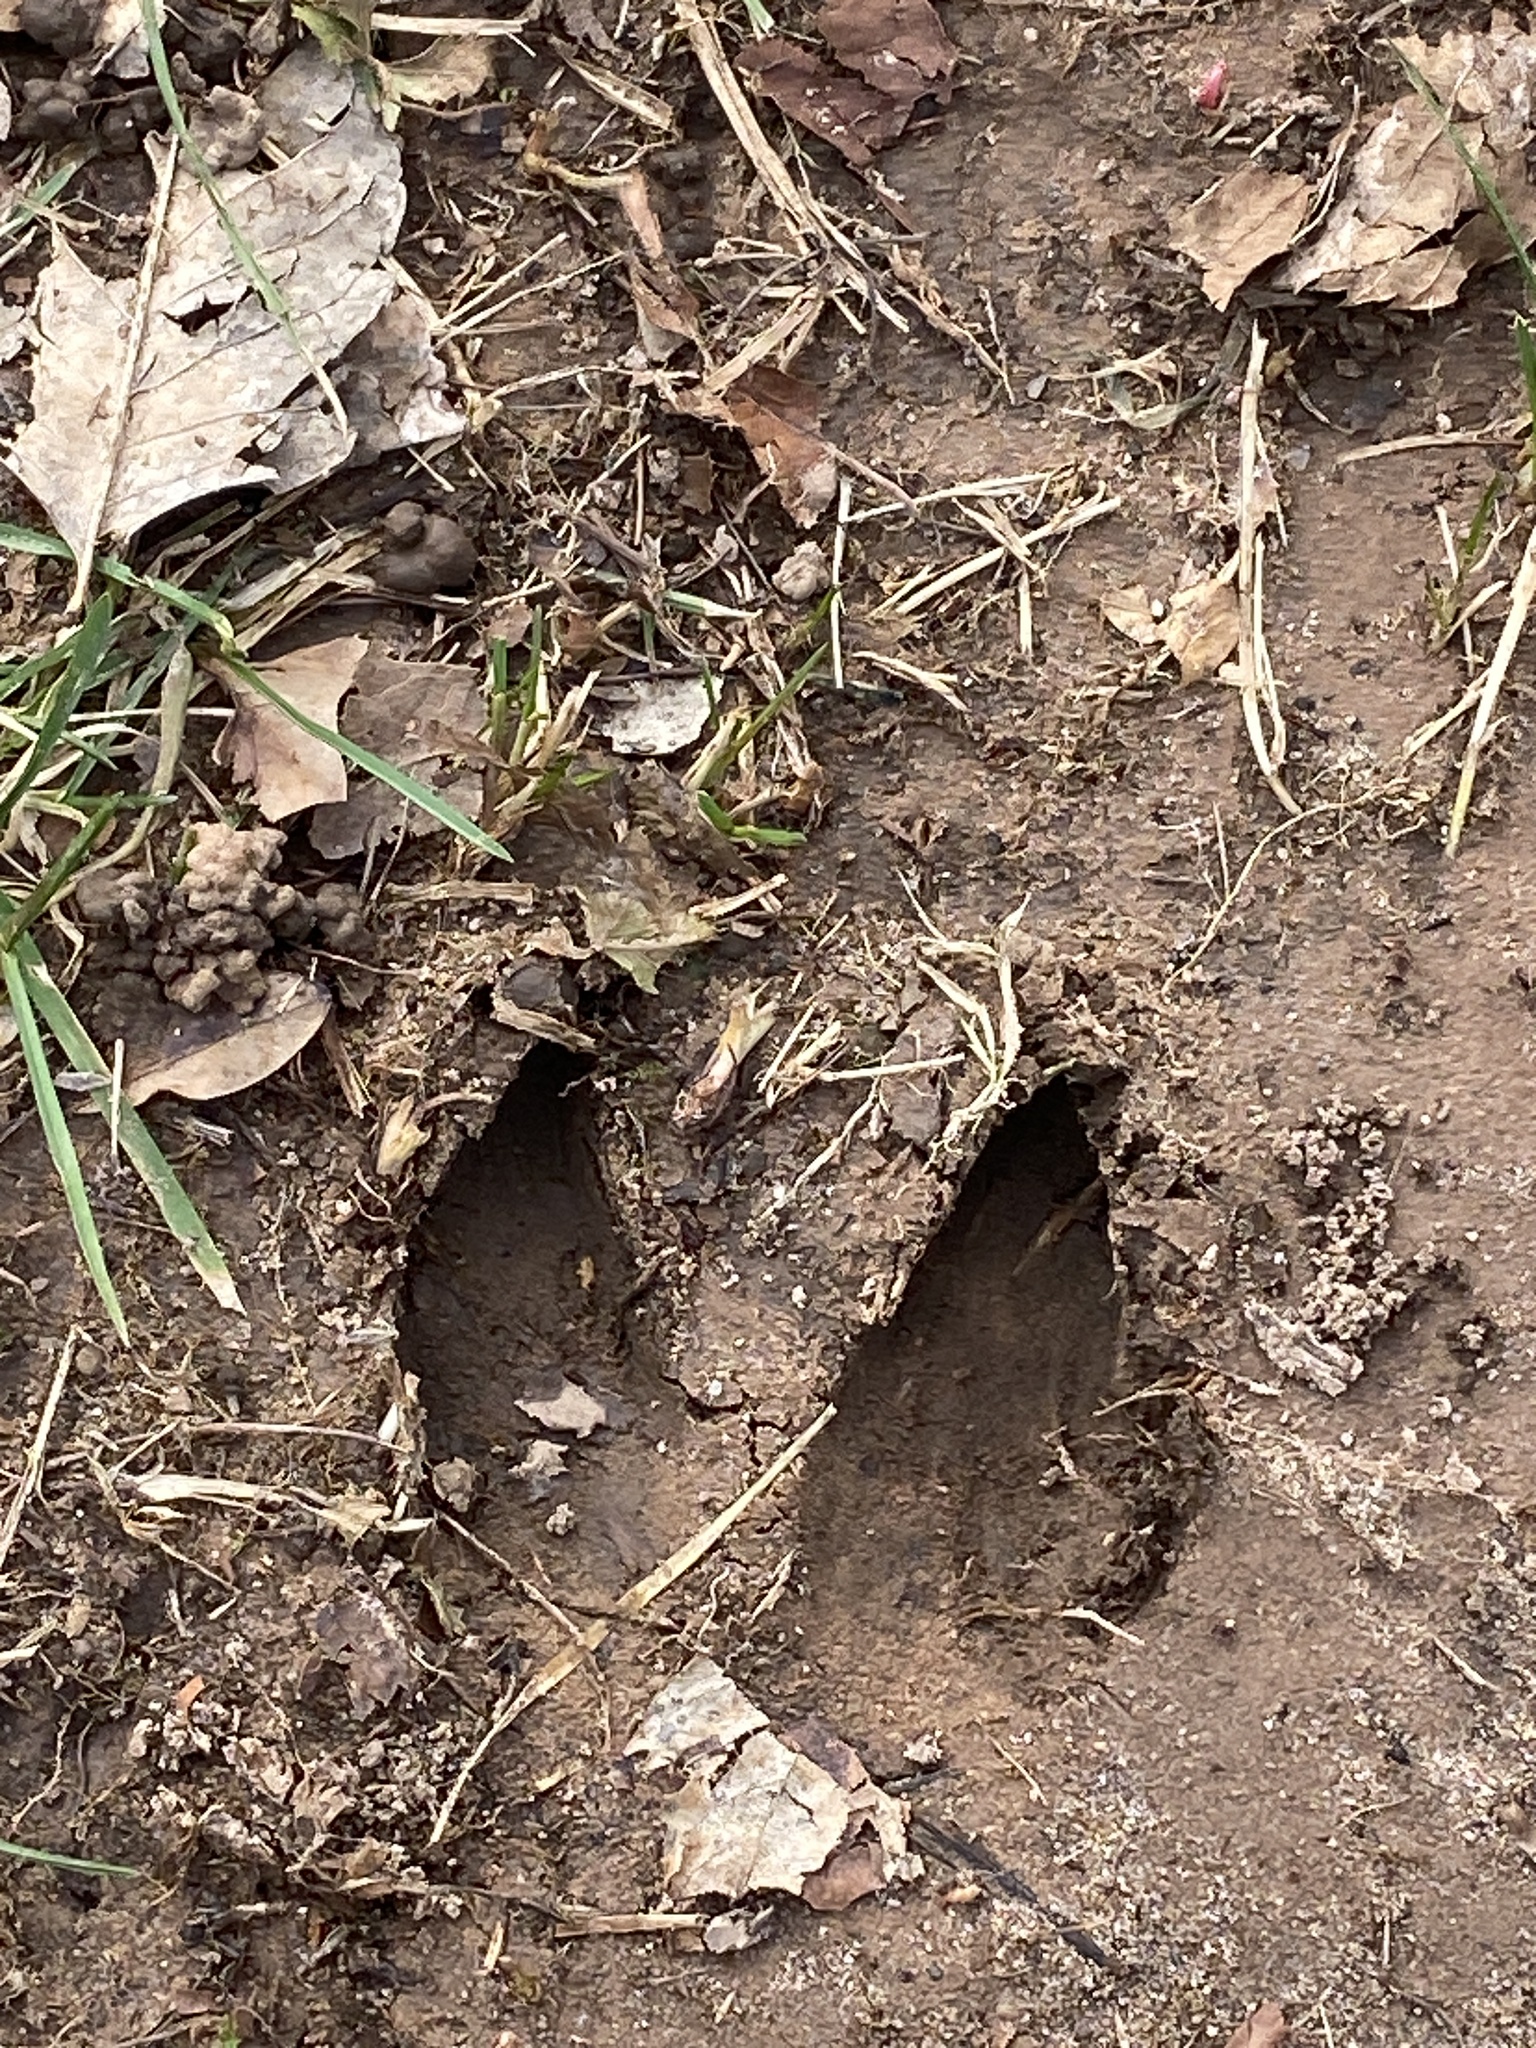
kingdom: Animalia
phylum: Chordata
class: Mammalia
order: Artiodactyla
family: Cervidae
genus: Odocoileus
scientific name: Odocoileus virginianus
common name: White-tailed deer
